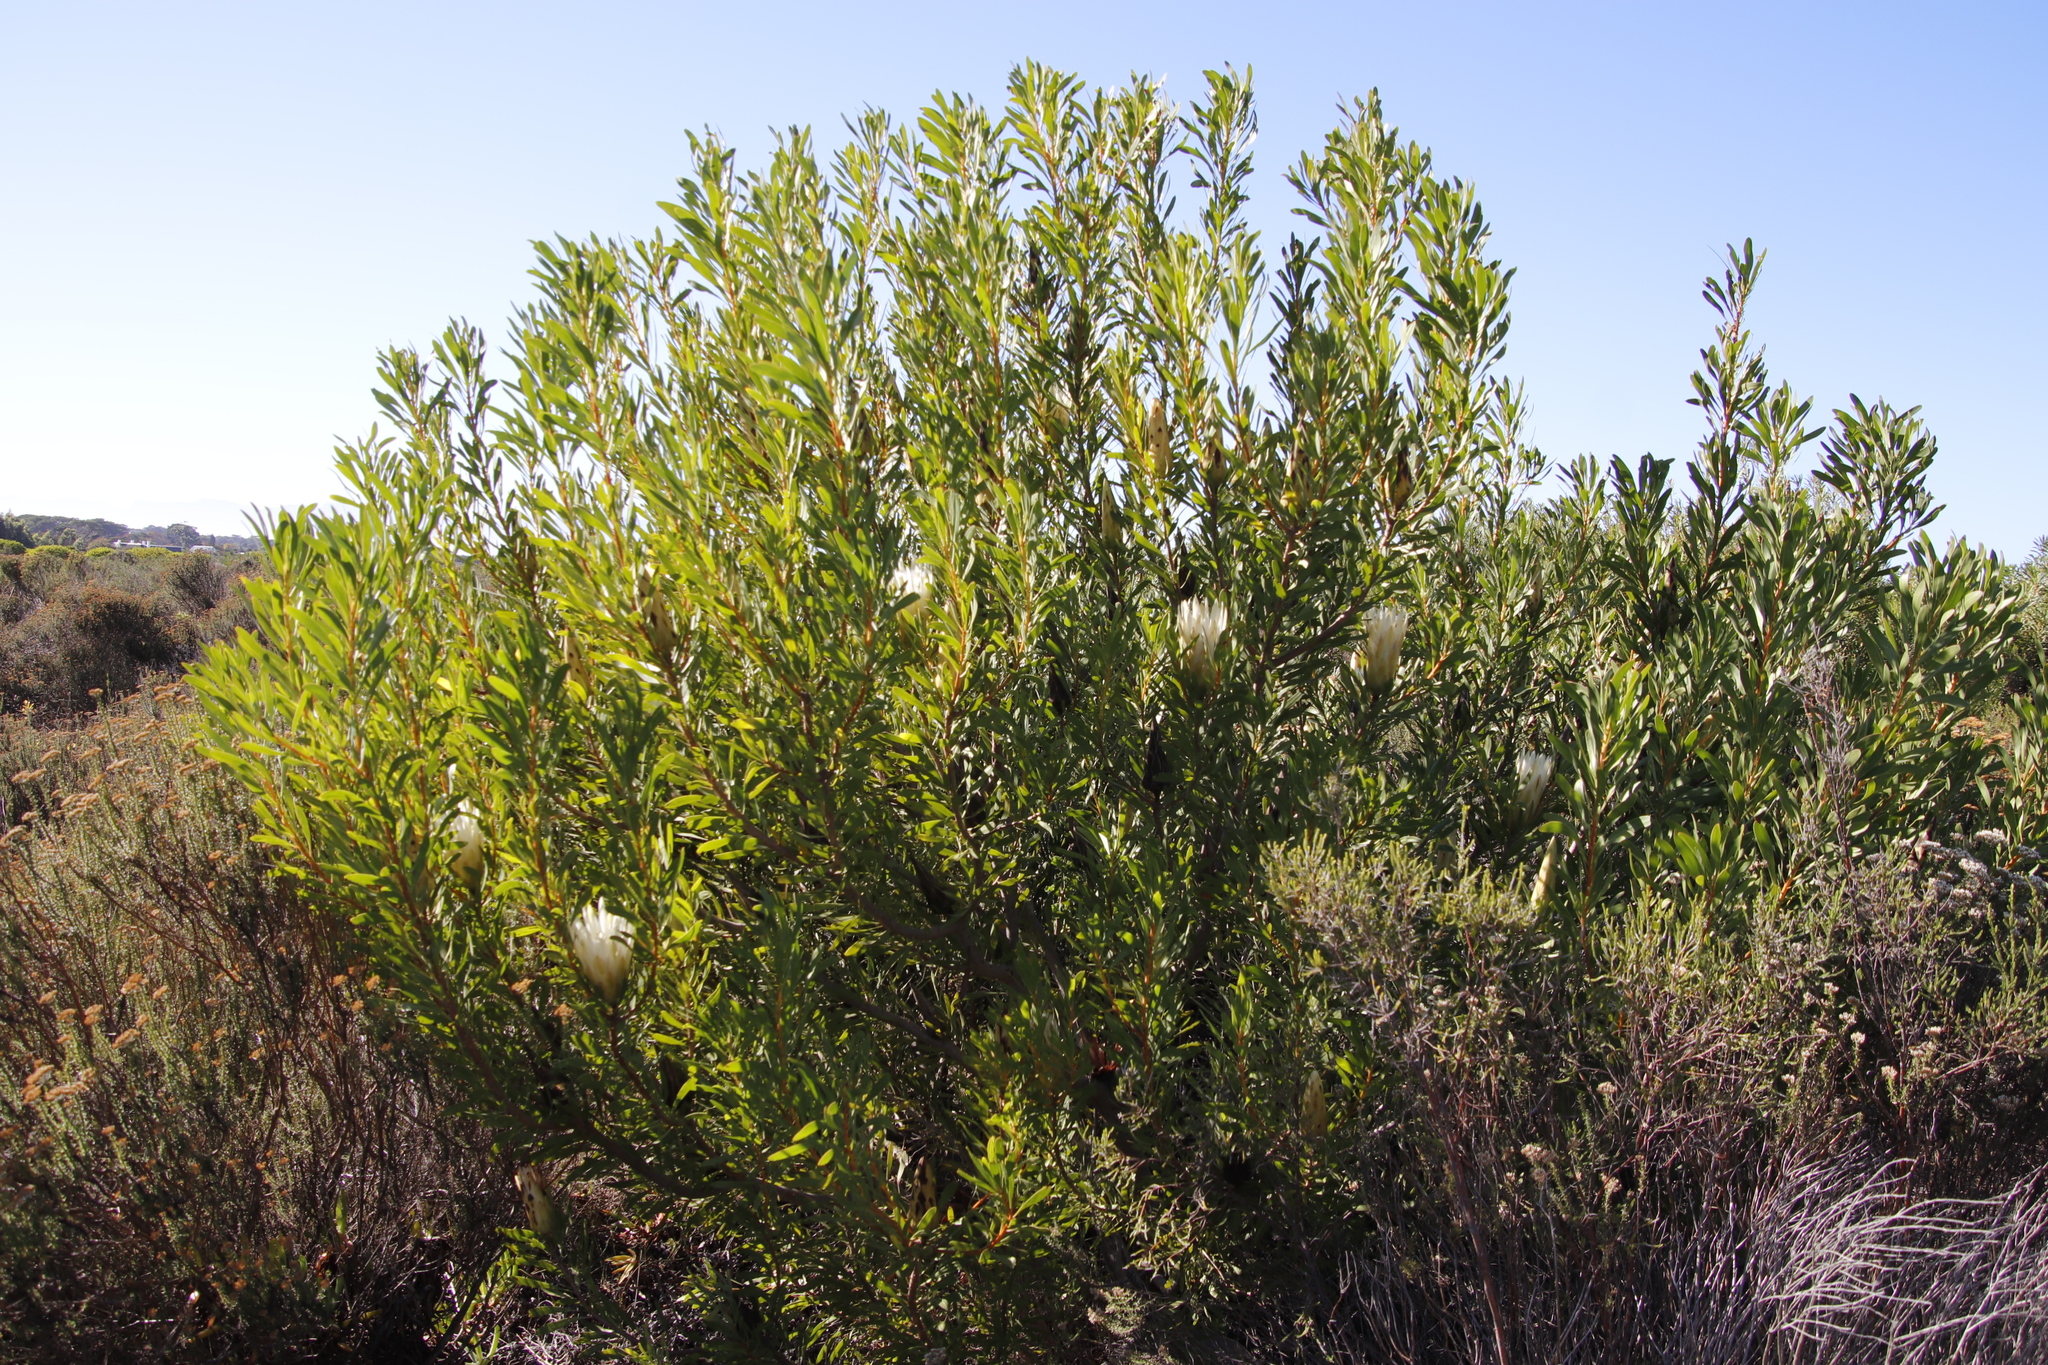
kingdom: Plantae
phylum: Tracheophyta
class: Magnoliopsida
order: Proteales
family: Proteaceae
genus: Protea
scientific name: Protea repens
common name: Sugarbush
